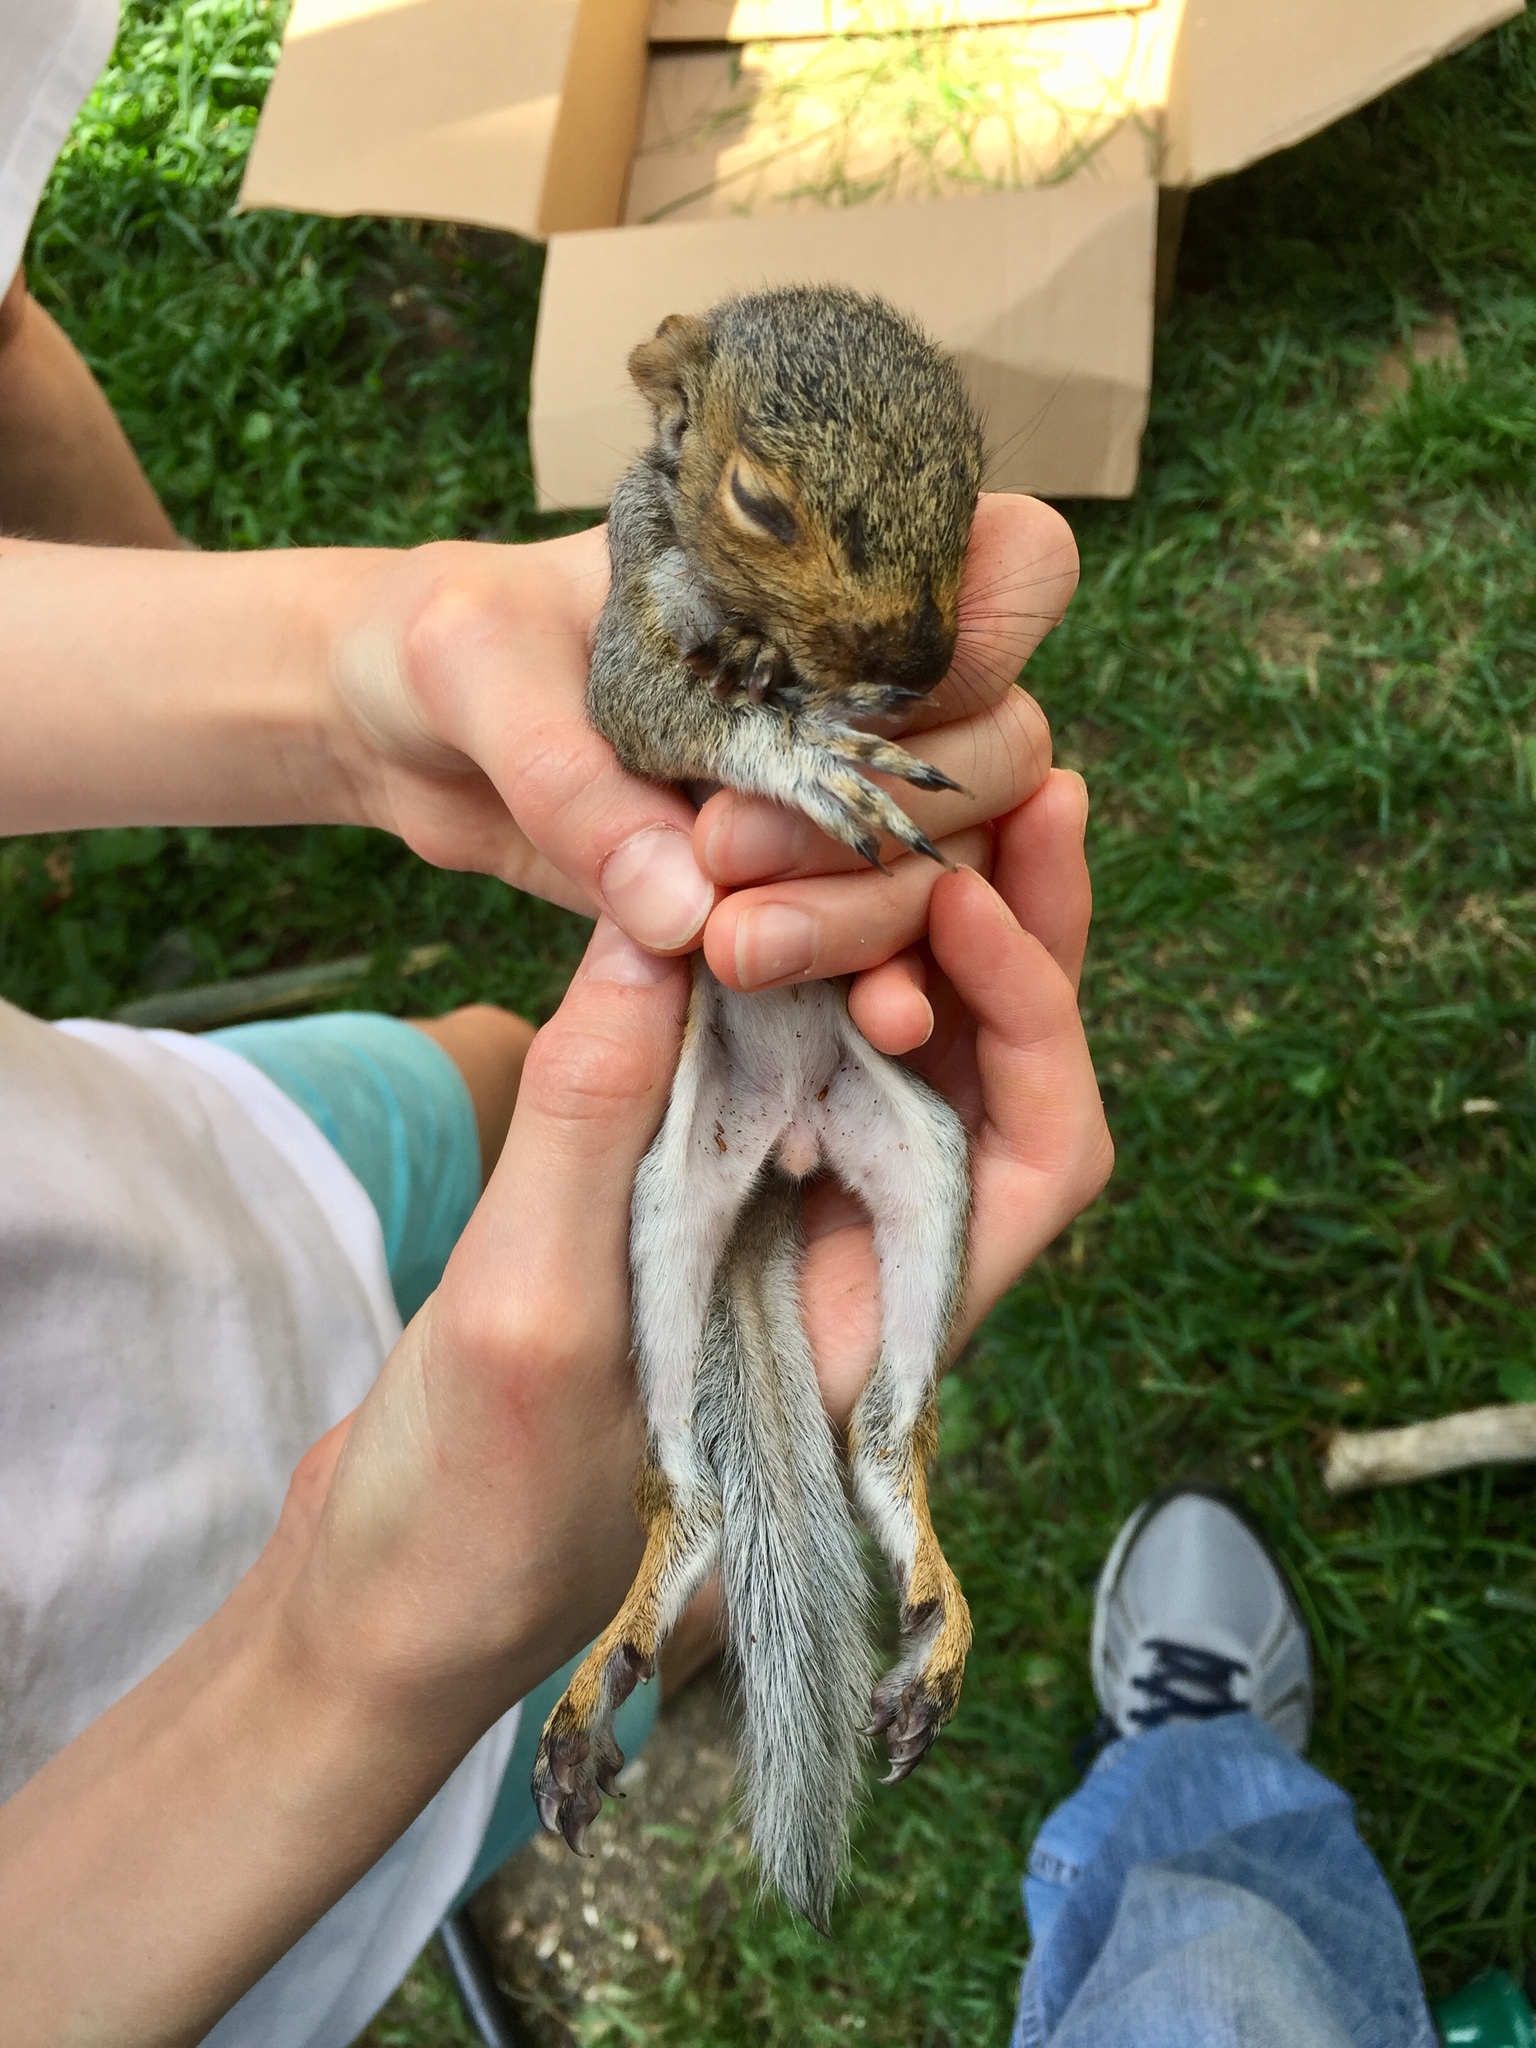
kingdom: Animalia
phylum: Chordata
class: Mammalia
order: Rodentia
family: Sciuridae
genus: Sciurus
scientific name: Sciurus carolinensis
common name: Eastern gray squirrel
